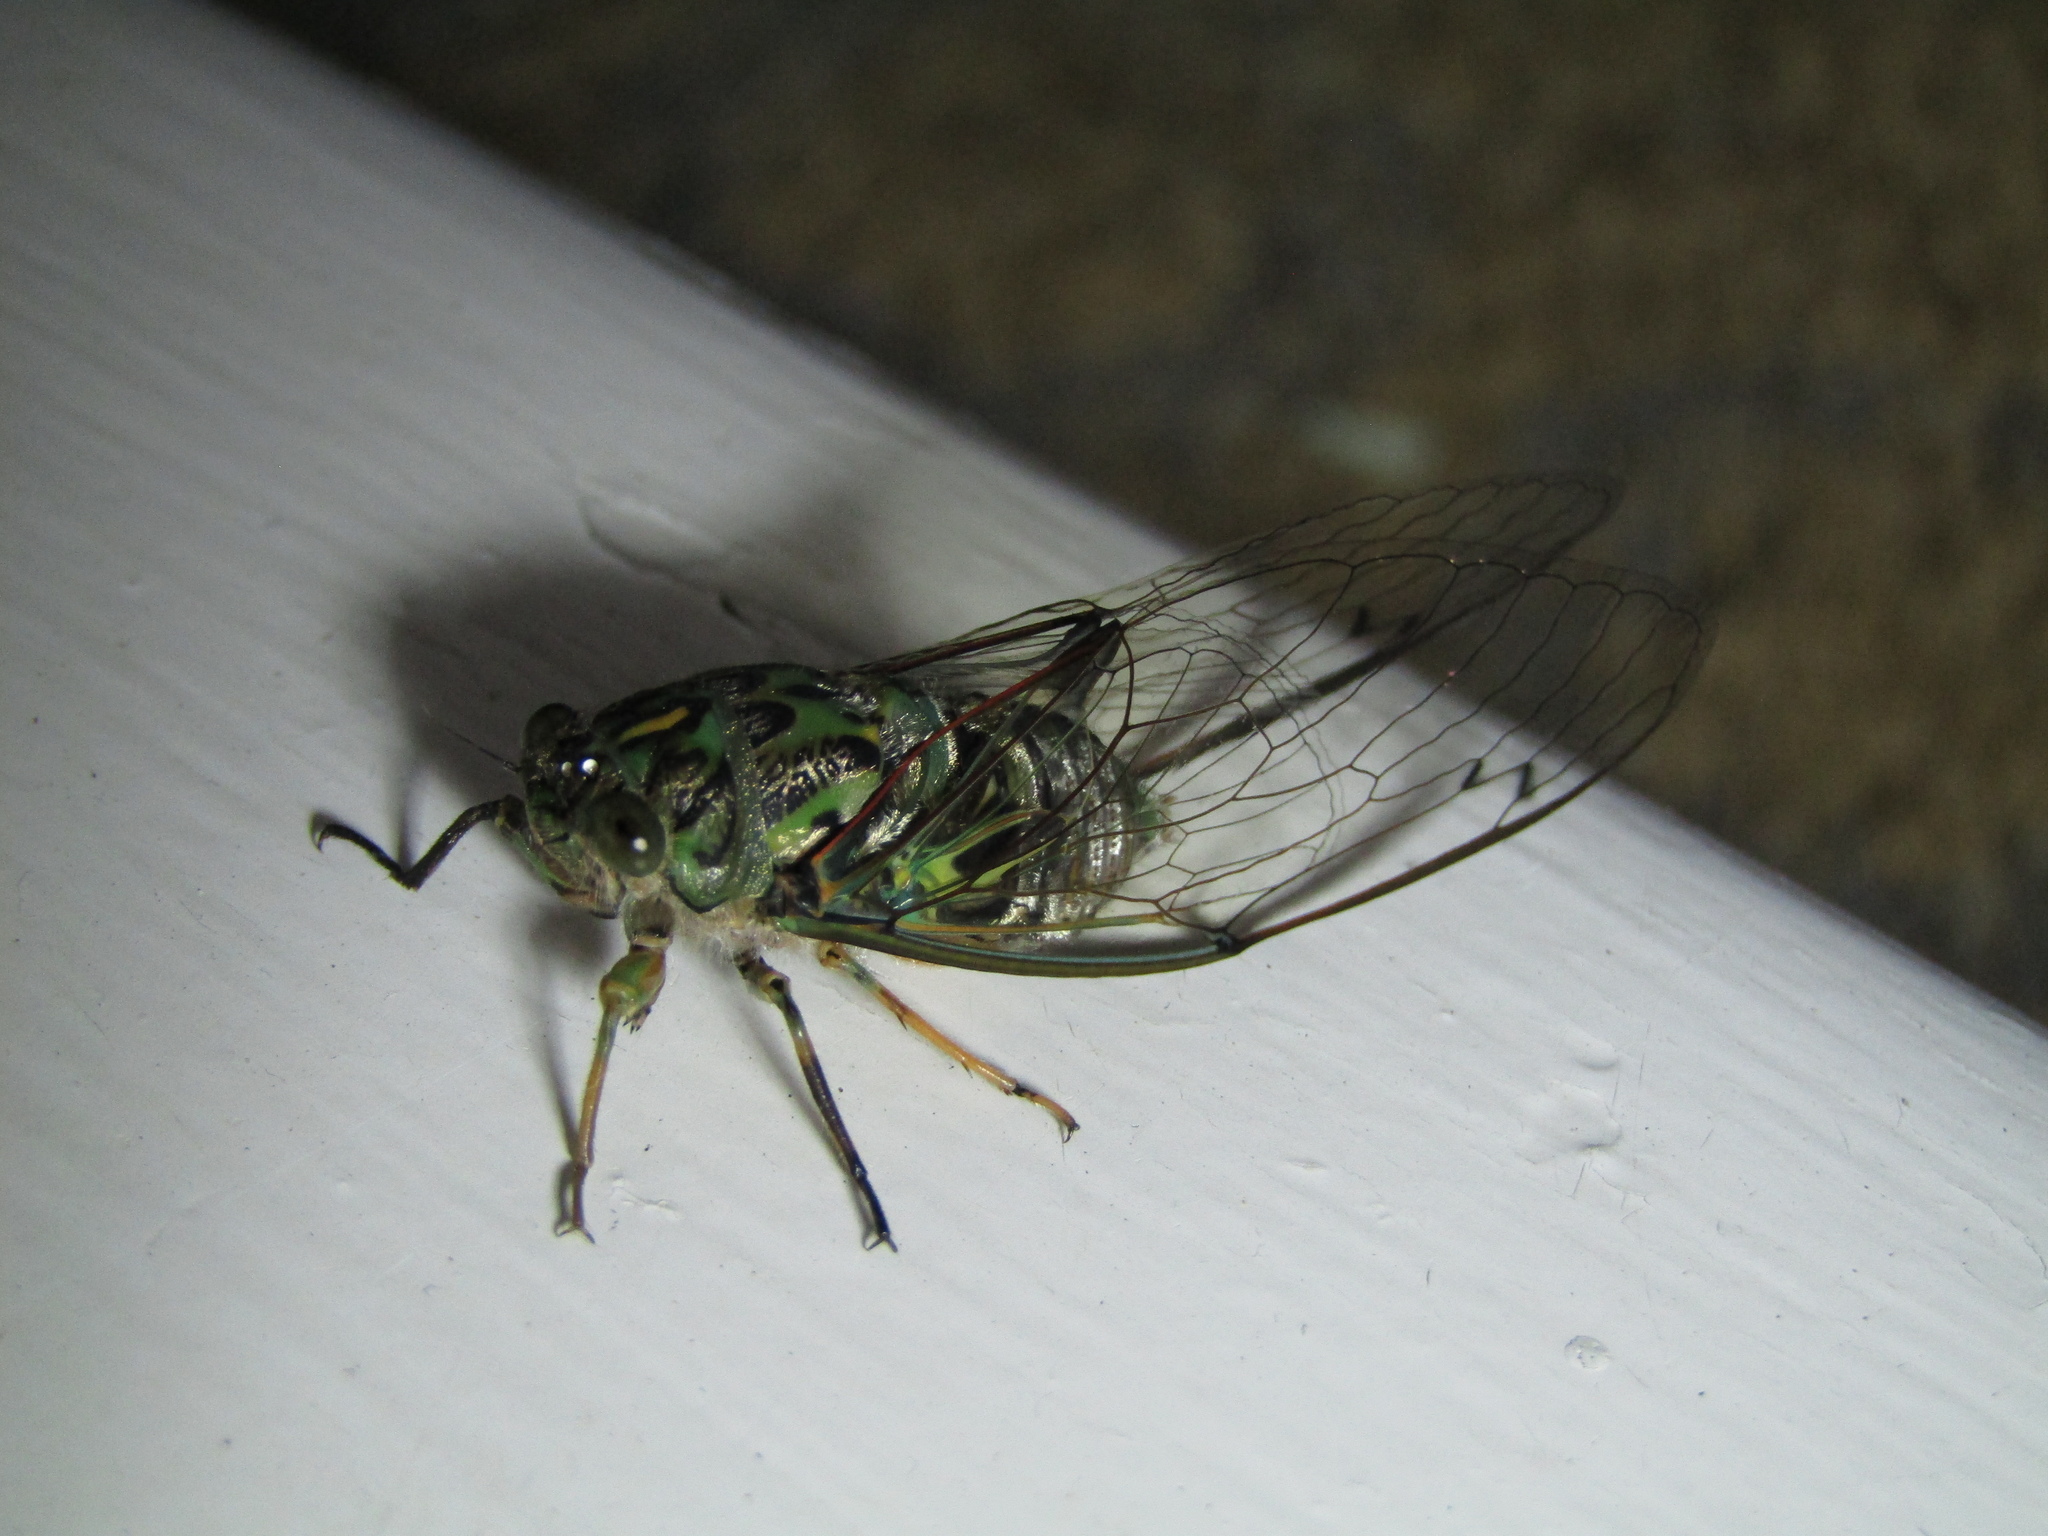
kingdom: Animalia
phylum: Arthropoda
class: Insecta
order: Hemiptera
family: Cicadidae
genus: Amphipsalta
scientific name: Amphipsalta zelandica
